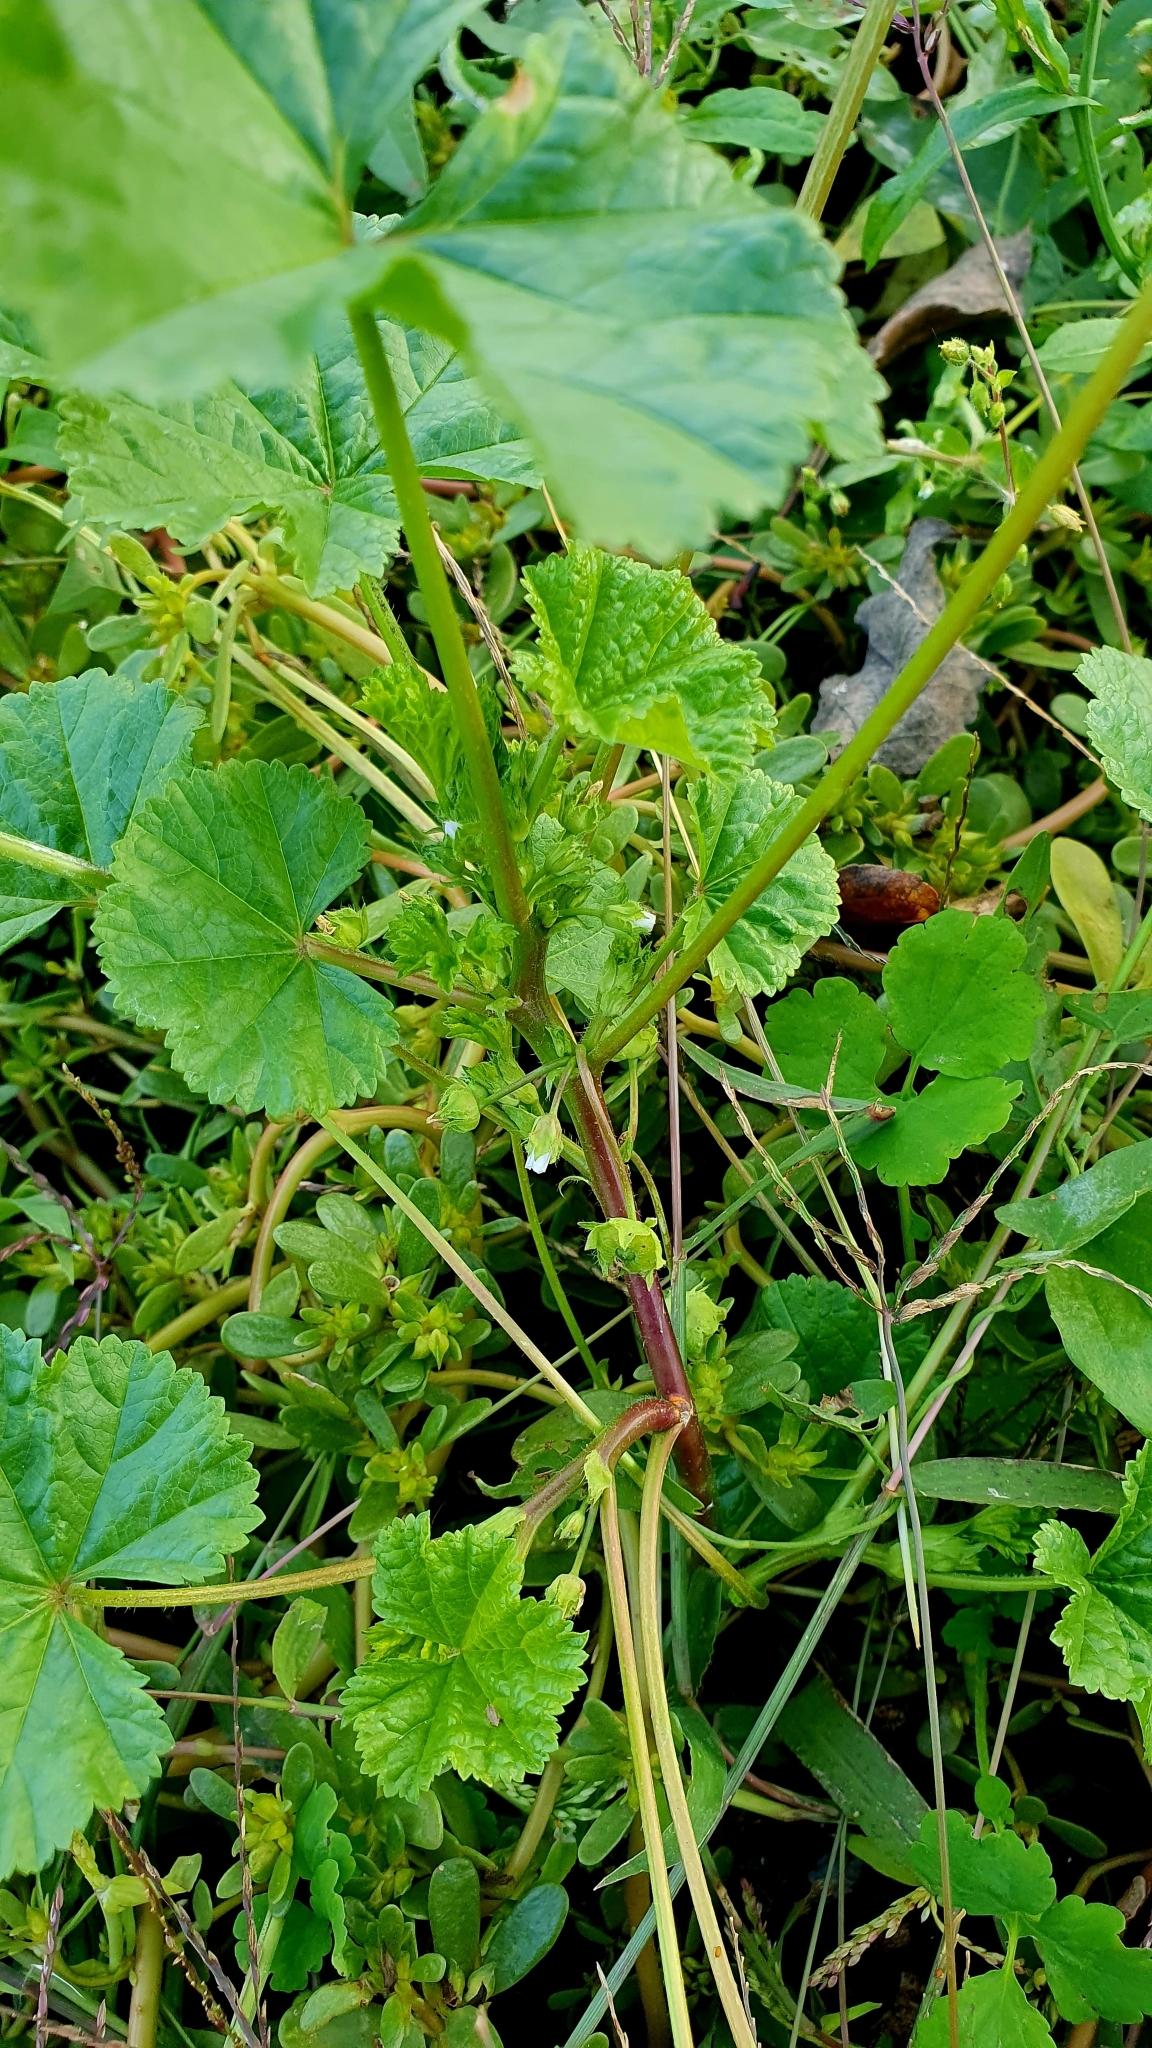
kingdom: Plantae
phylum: Tracheophyta
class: Magnoliopsida
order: Malvales
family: Malvaceae
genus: Malva
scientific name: Malva pusilla
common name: Small mallow
